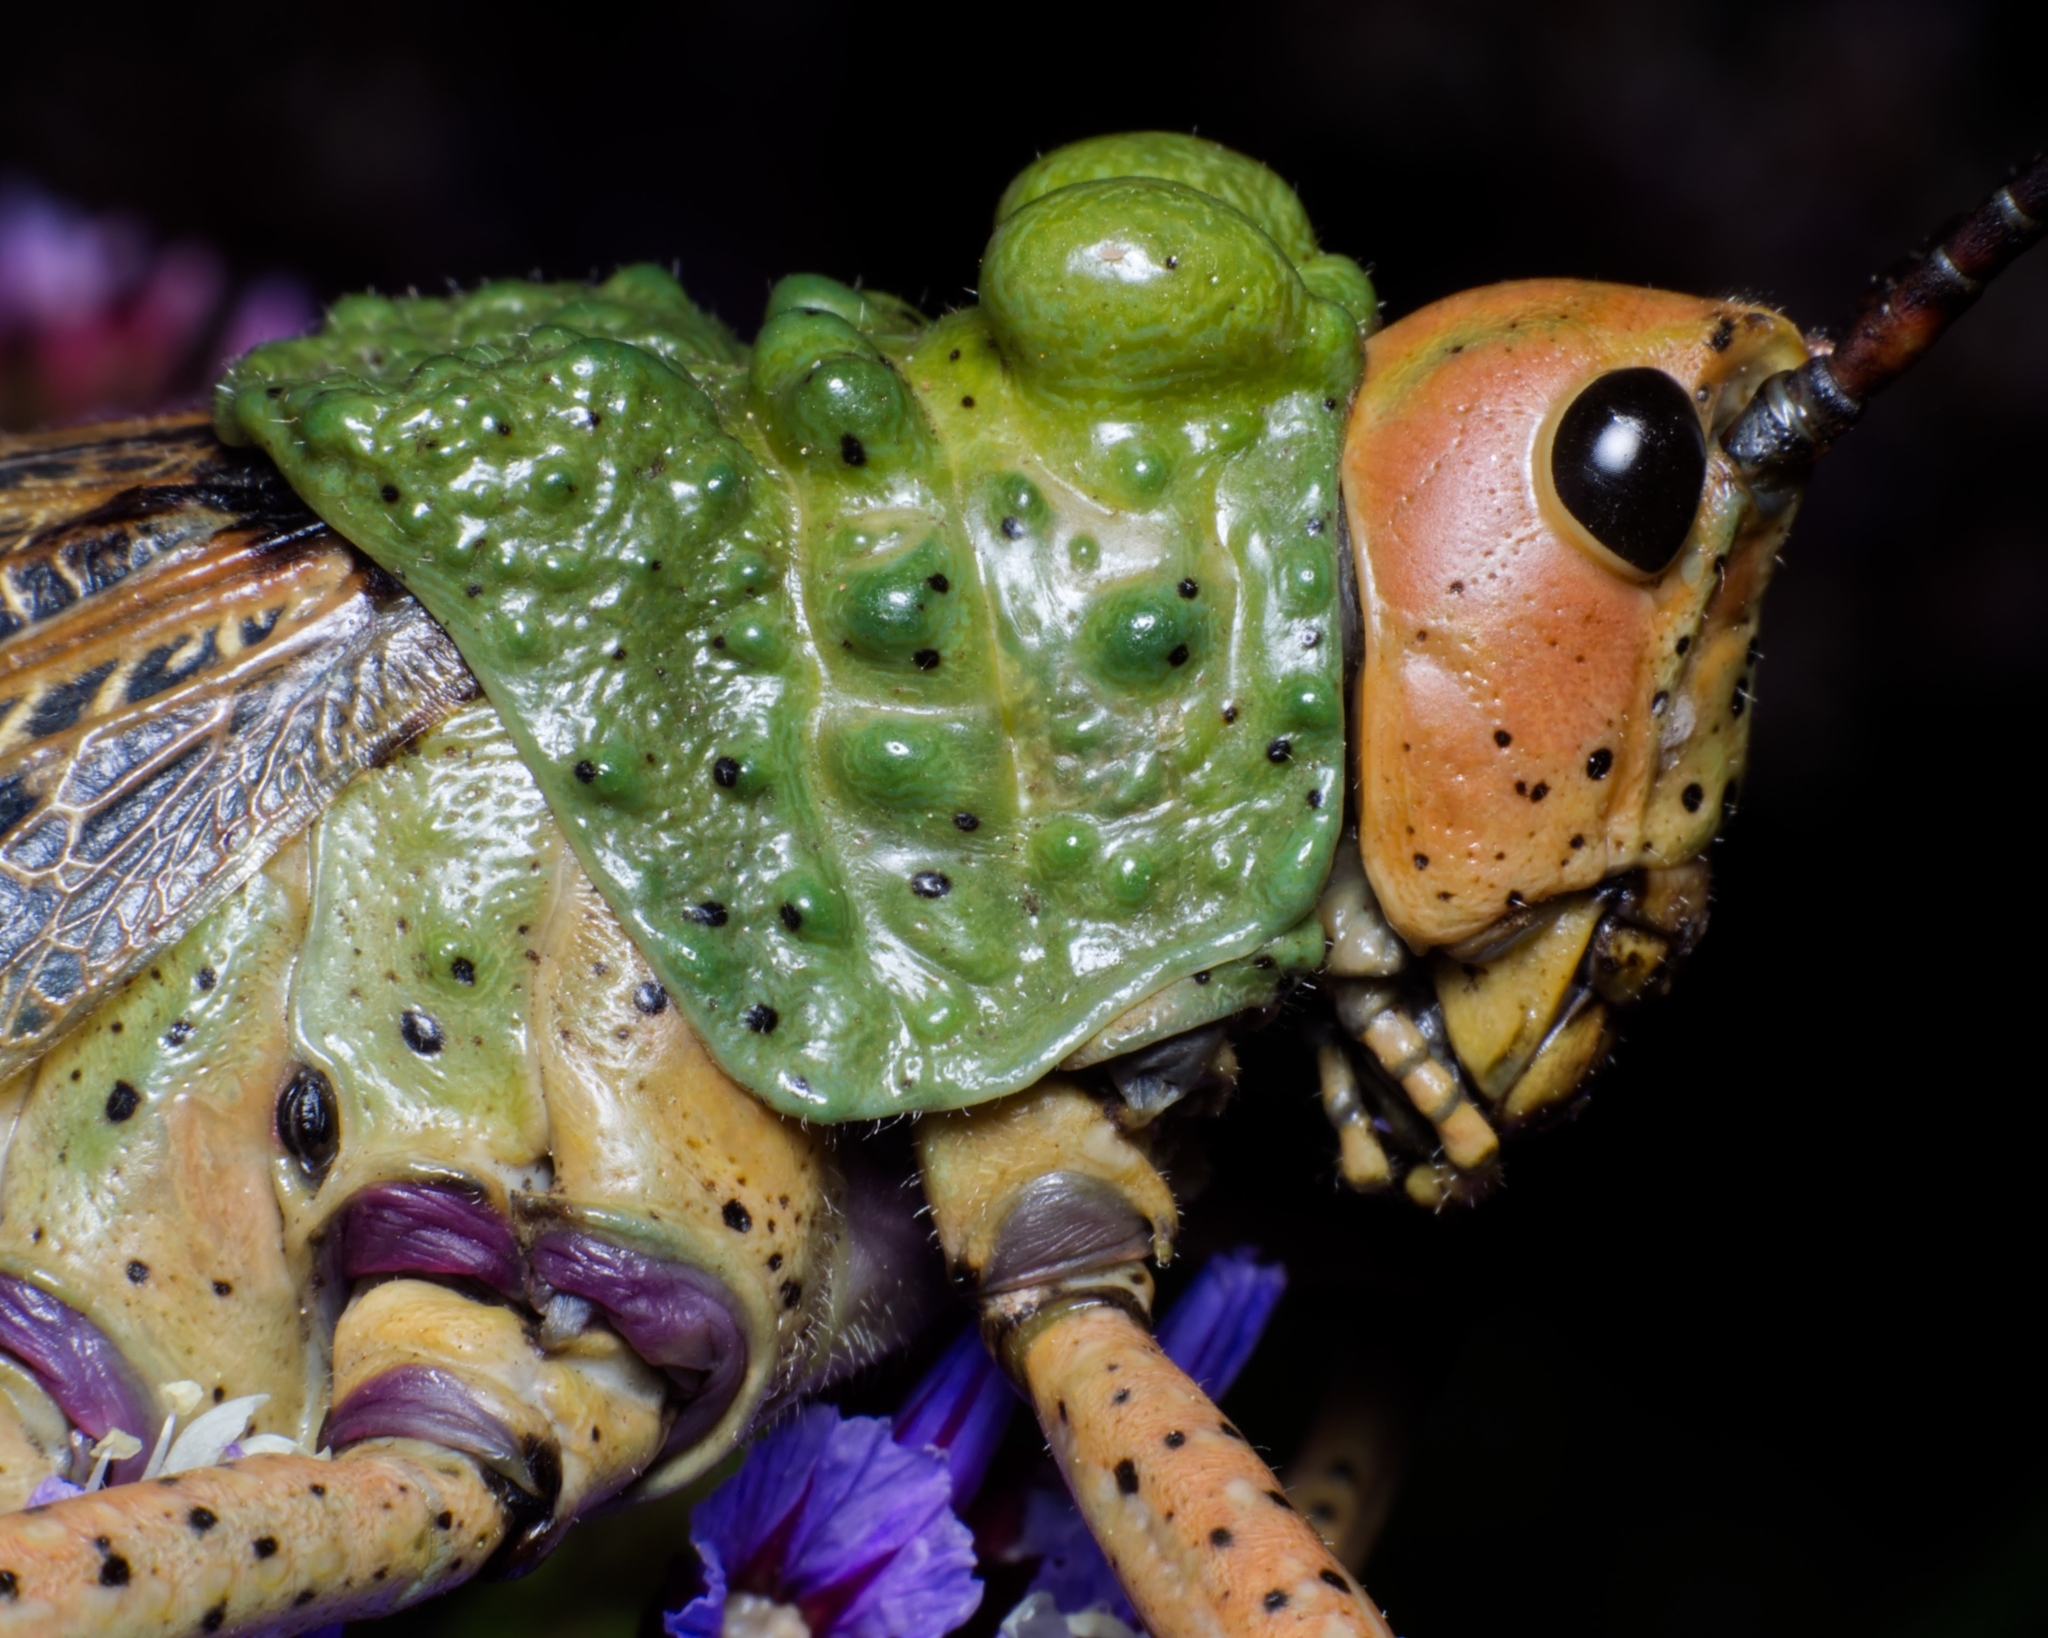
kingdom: Animalia
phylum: Arthropoda
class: Insecta
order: Orthoptera
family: Pyrgomorphidae
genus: Phymateus
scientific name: Phymateus leprosus
